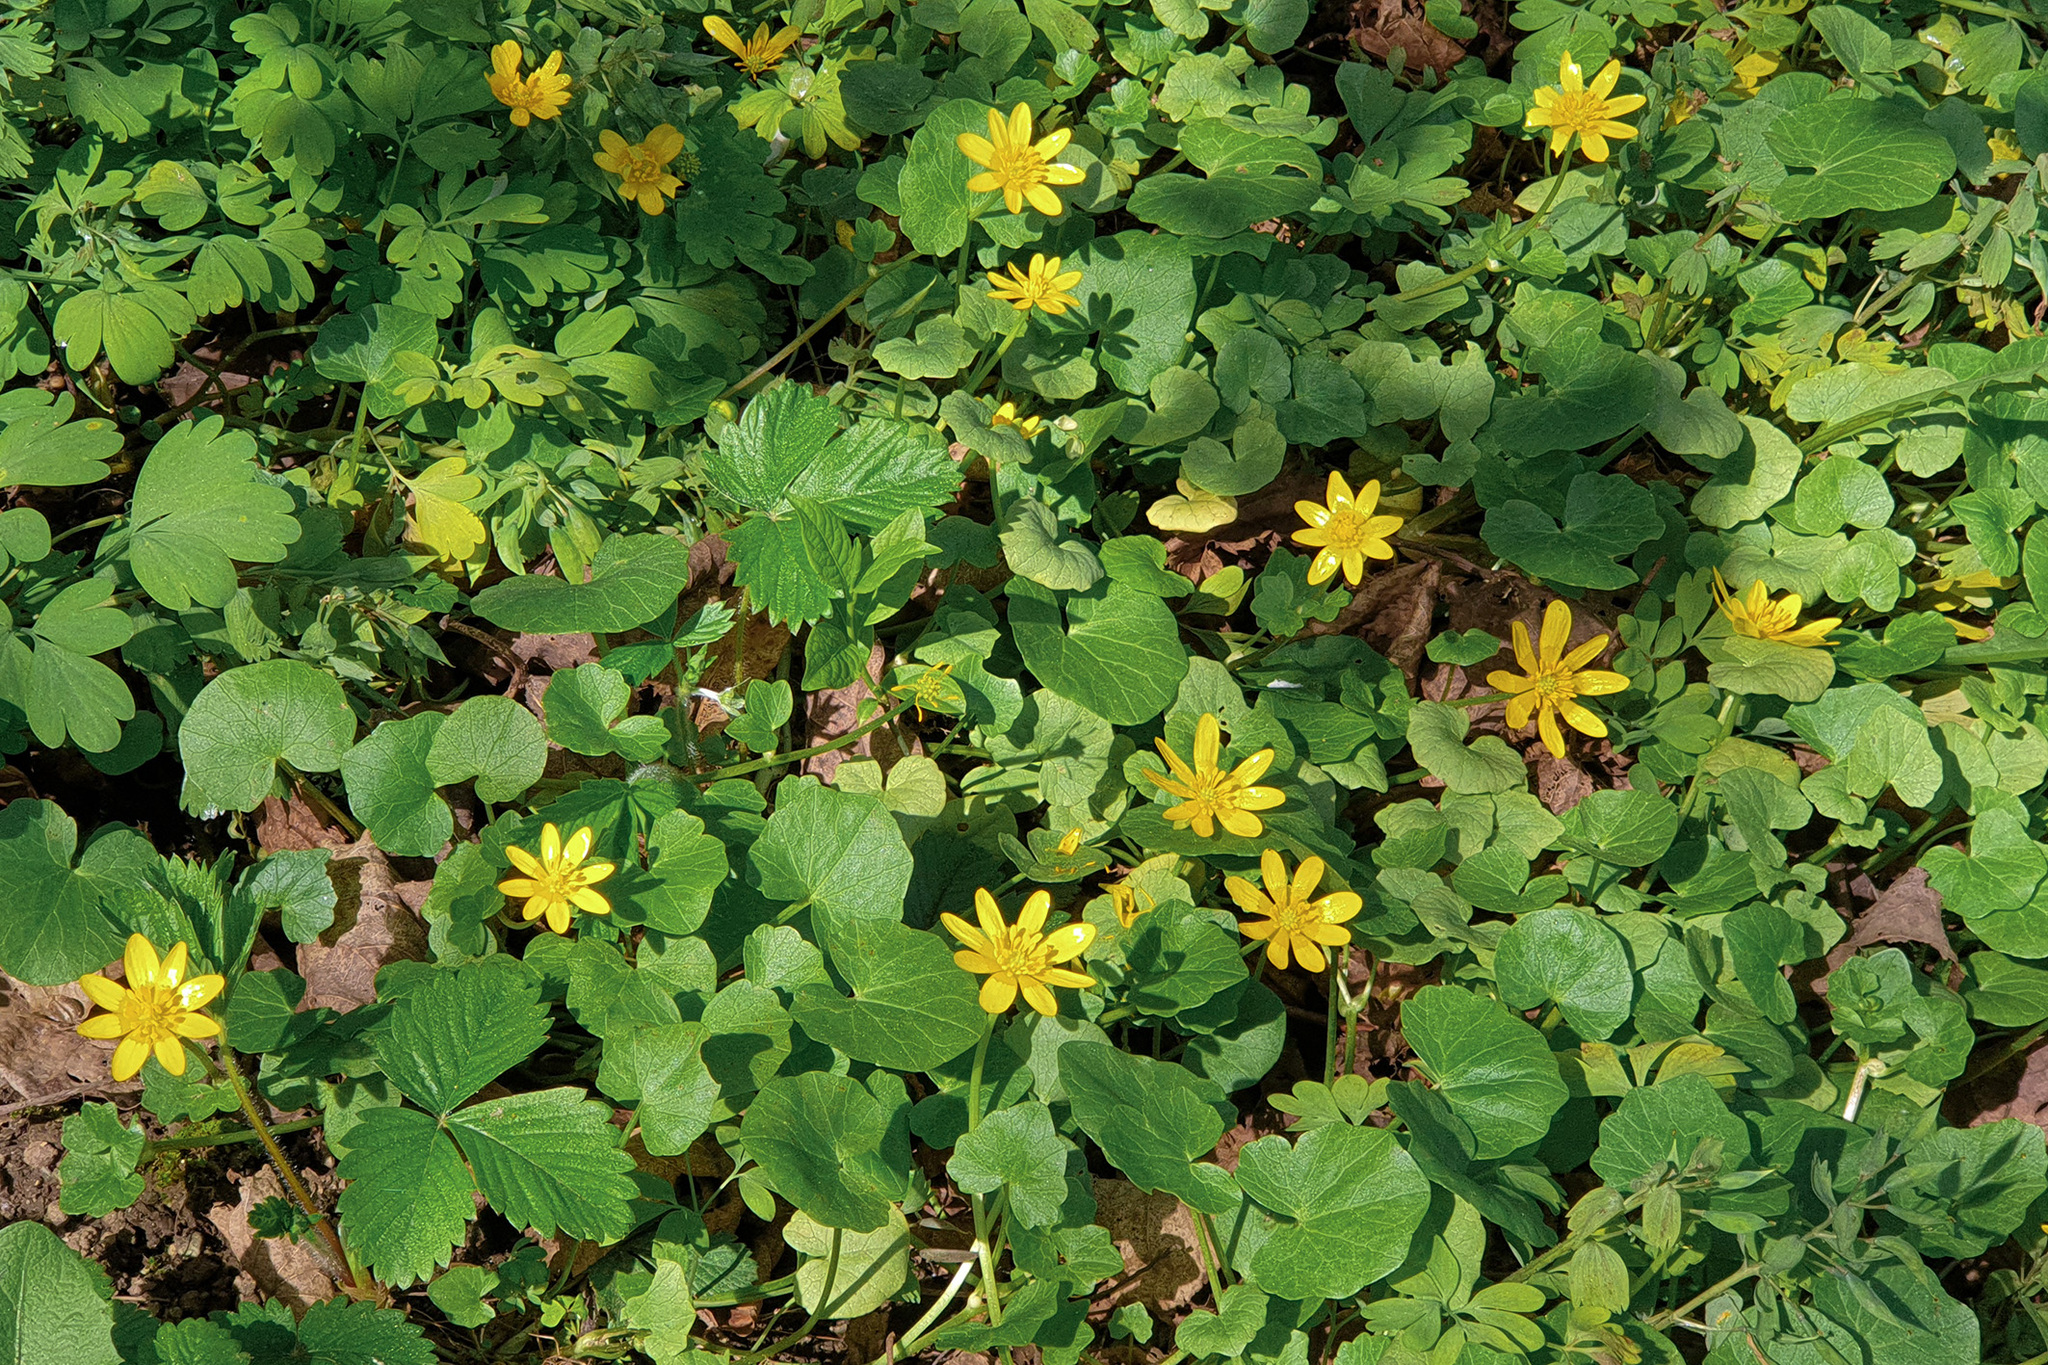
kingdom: Plantae
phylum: Tracheophyta
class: Magnoliopsida
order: Ranunculales
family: Ranunculaceae
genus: Ficaria
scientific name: Ficaria verna
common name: Lesser celandine
